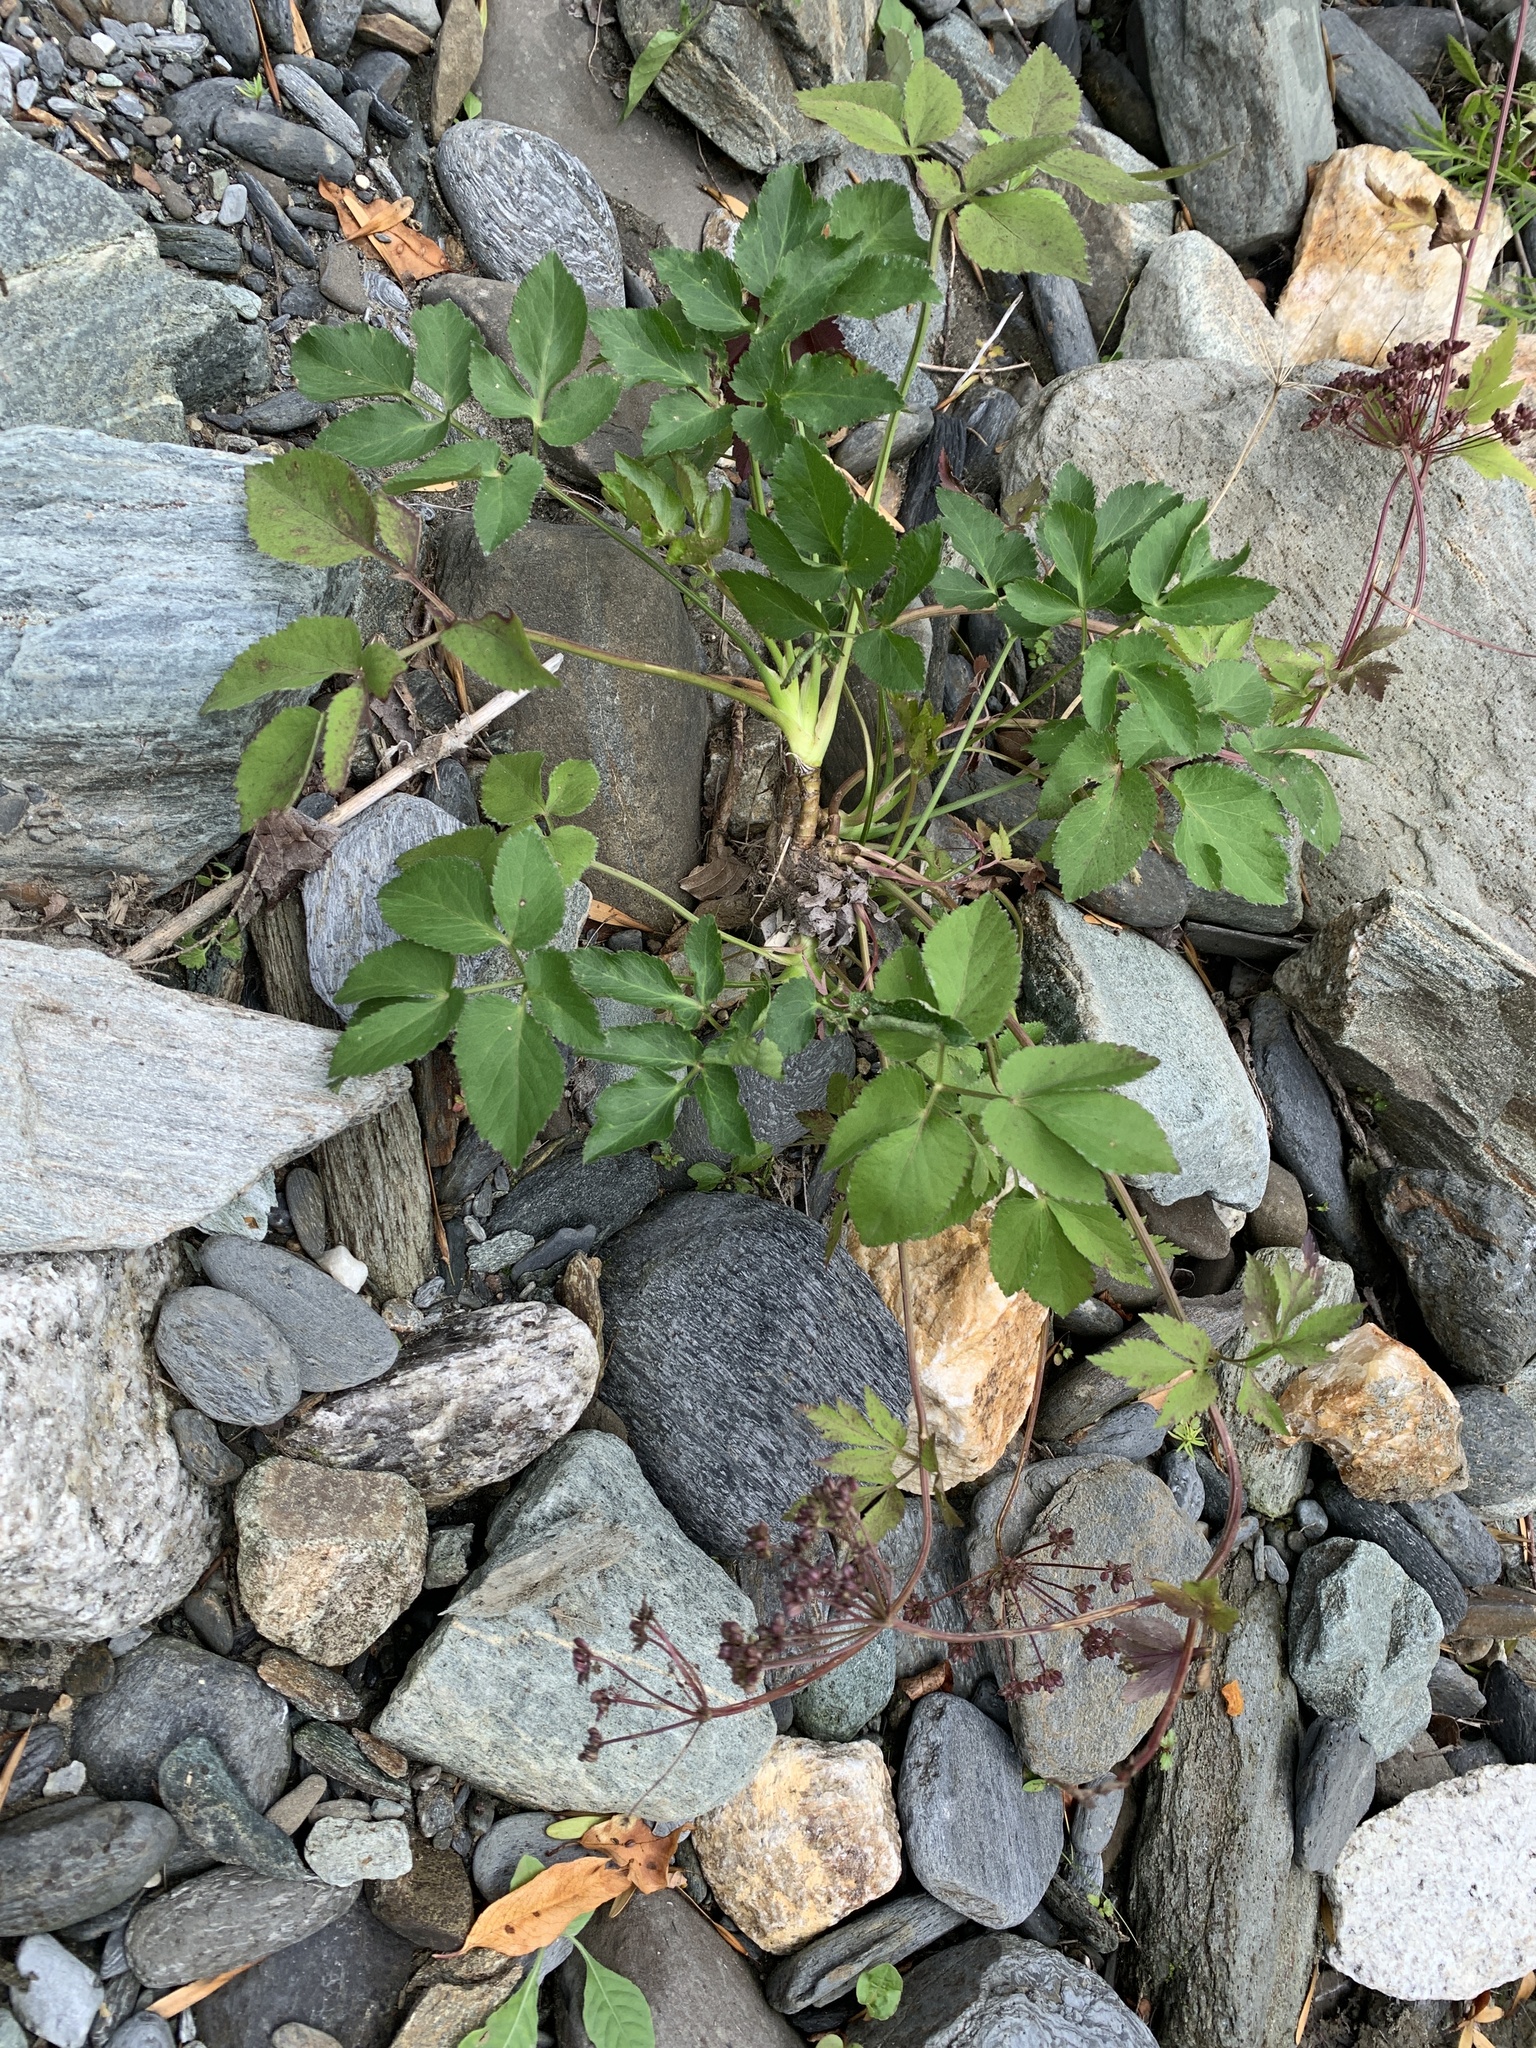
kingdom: Plantae
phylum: Tracheophyta
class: Magnoliopsida
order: Apiales
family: Apiaceae
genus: Aegopodium
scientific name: Aegopodium podagraria
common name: Ground-elder
